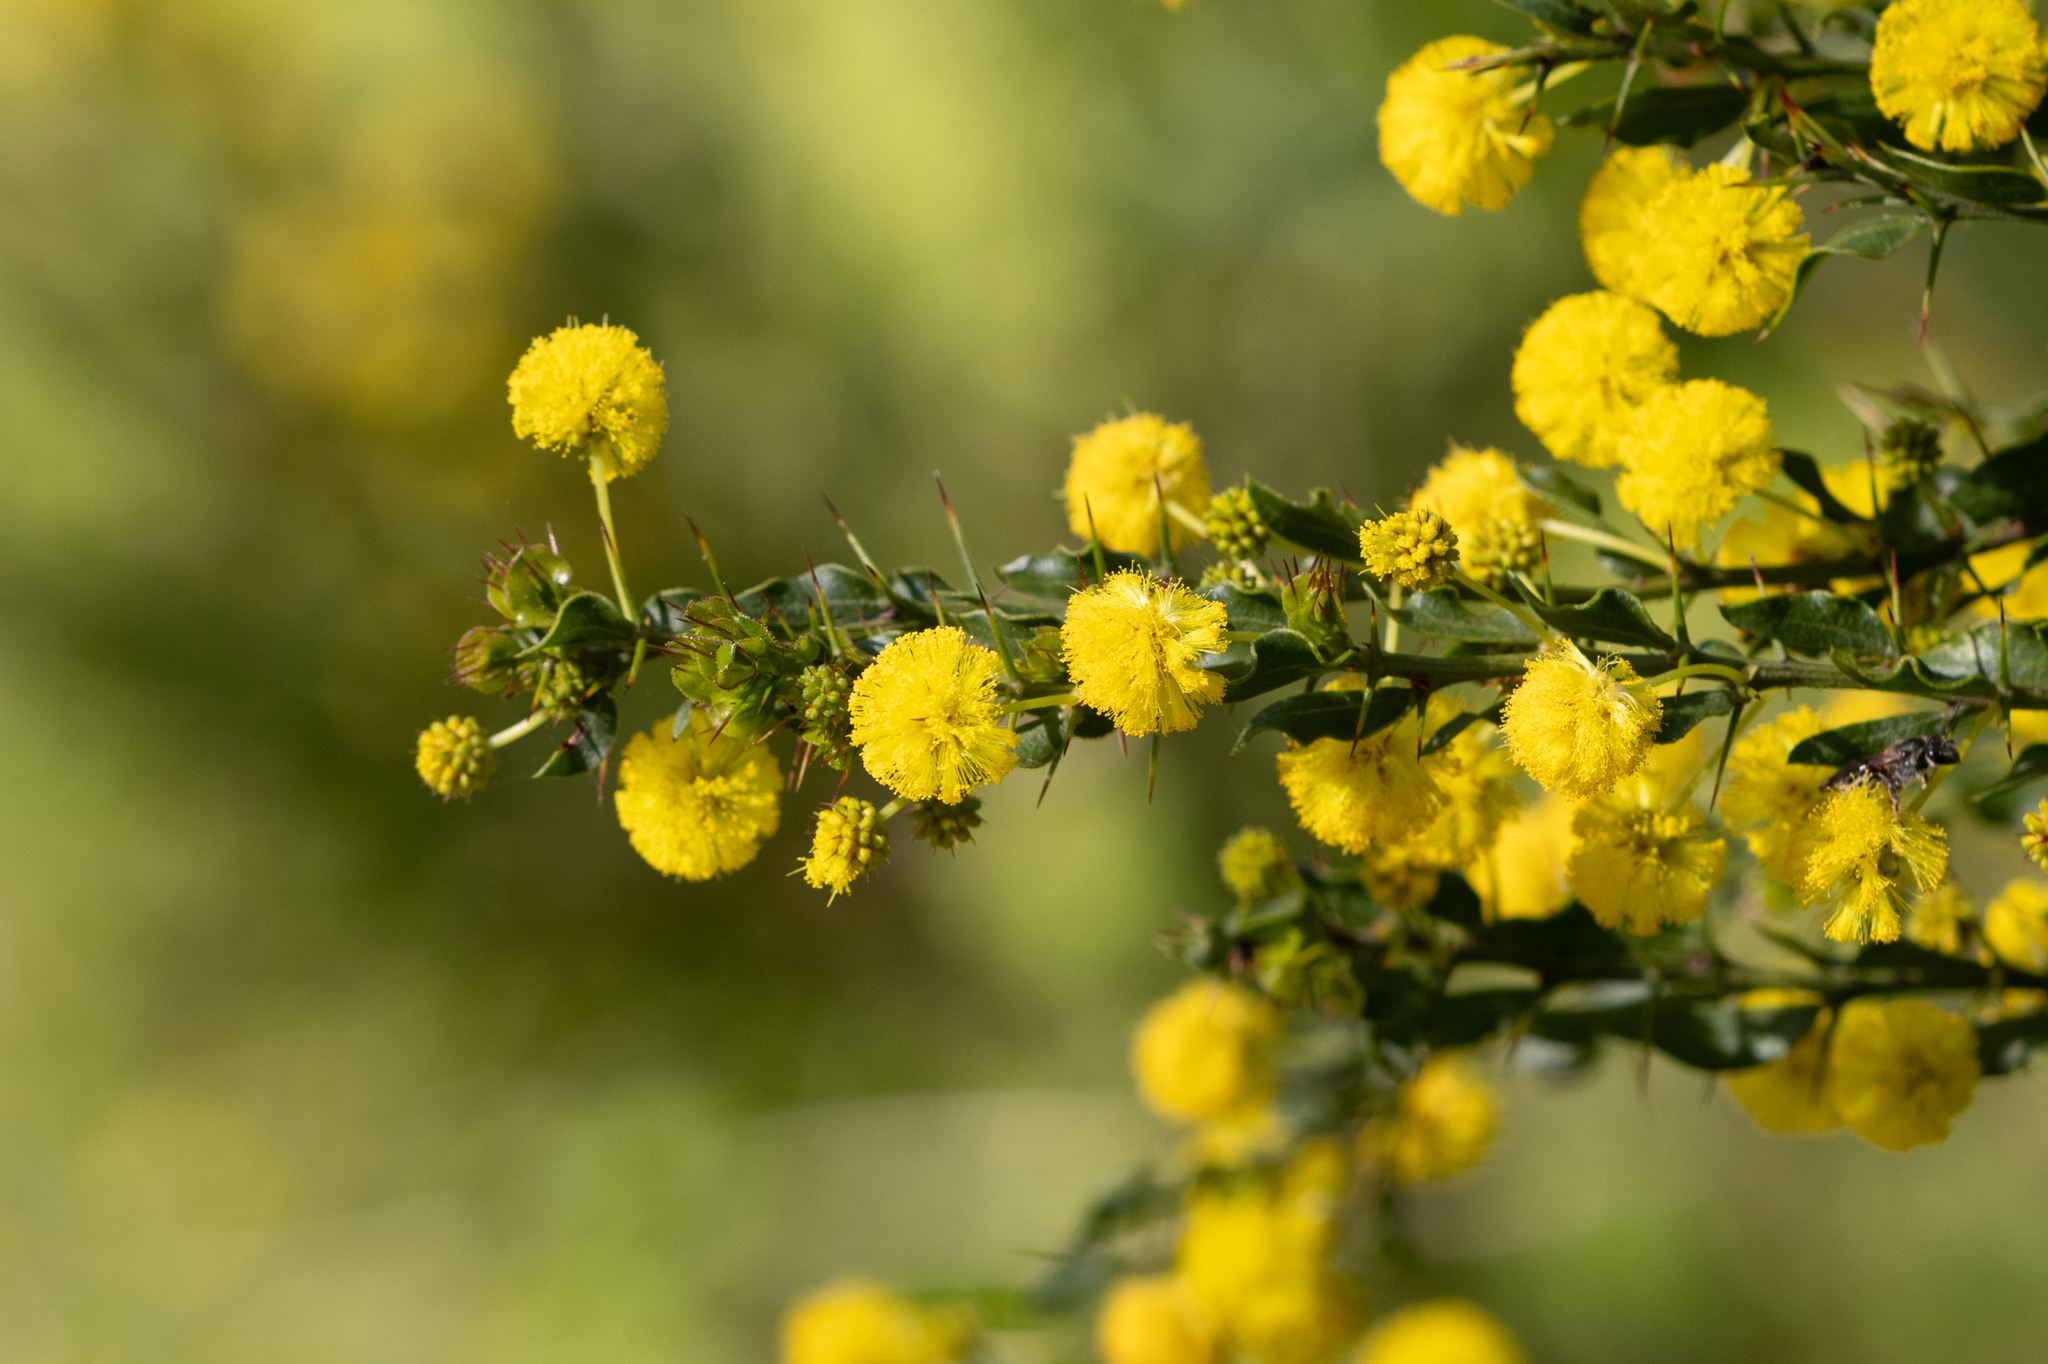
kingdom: Plantae
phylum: Tracheophyta
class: Magnoliopsida
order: Fabales
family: Fabaceae
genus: Acacia
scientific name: Acacia paradoxa
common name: Paradox acacia
